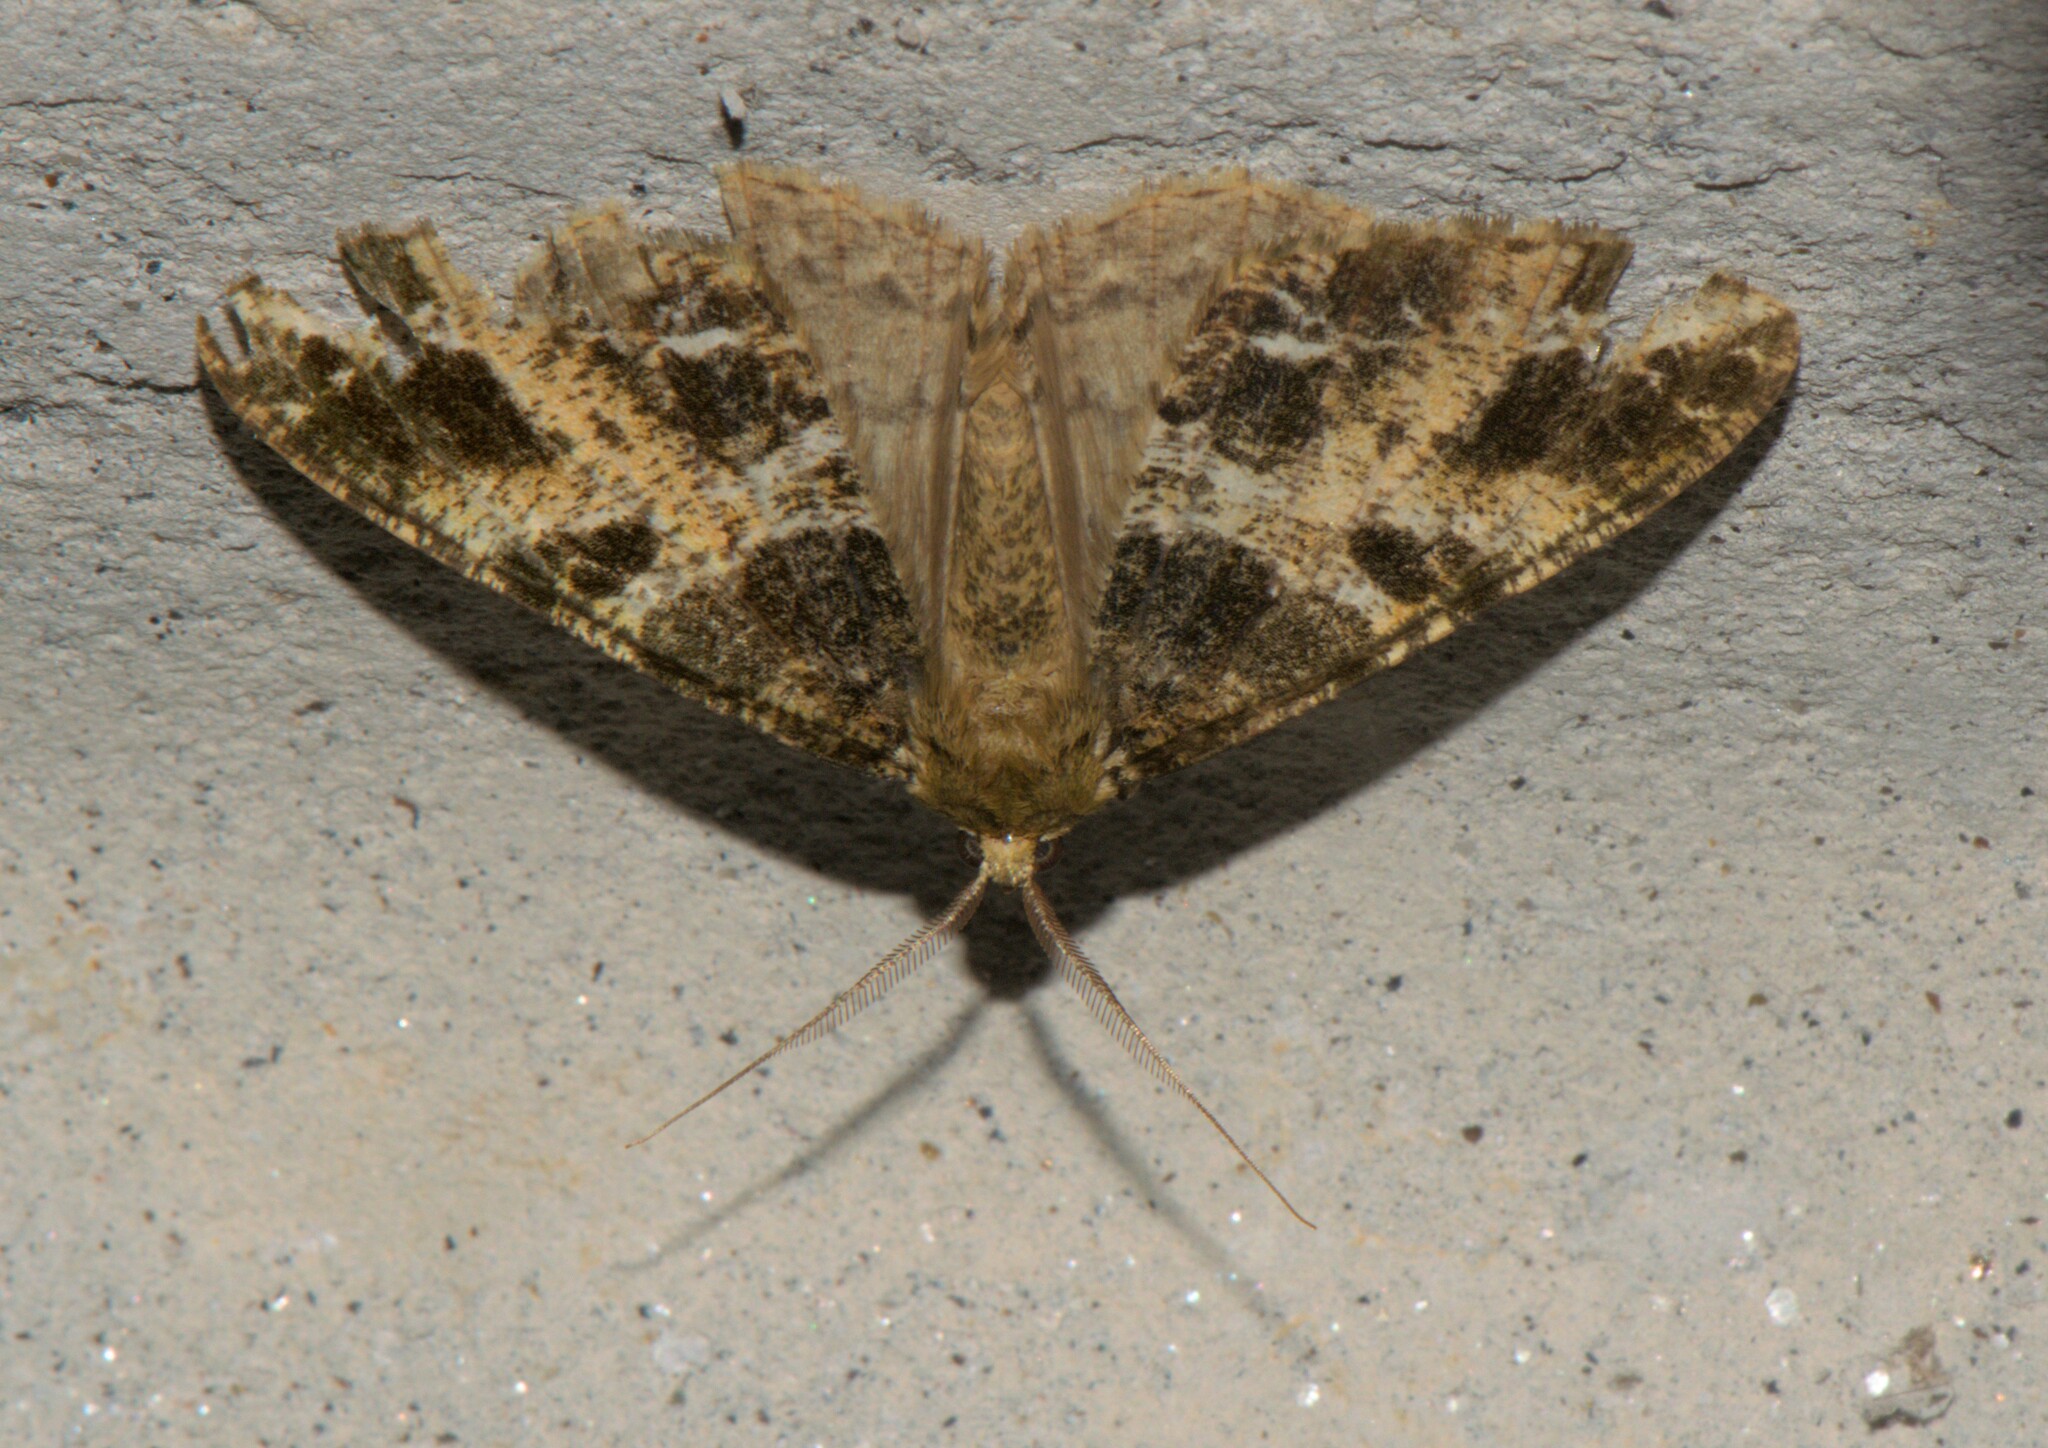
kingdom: Animalia
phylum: Arthropoda
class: Insecta
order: Lepidoptera
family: Geometridae
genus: Arichanna
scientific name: Arichanna
